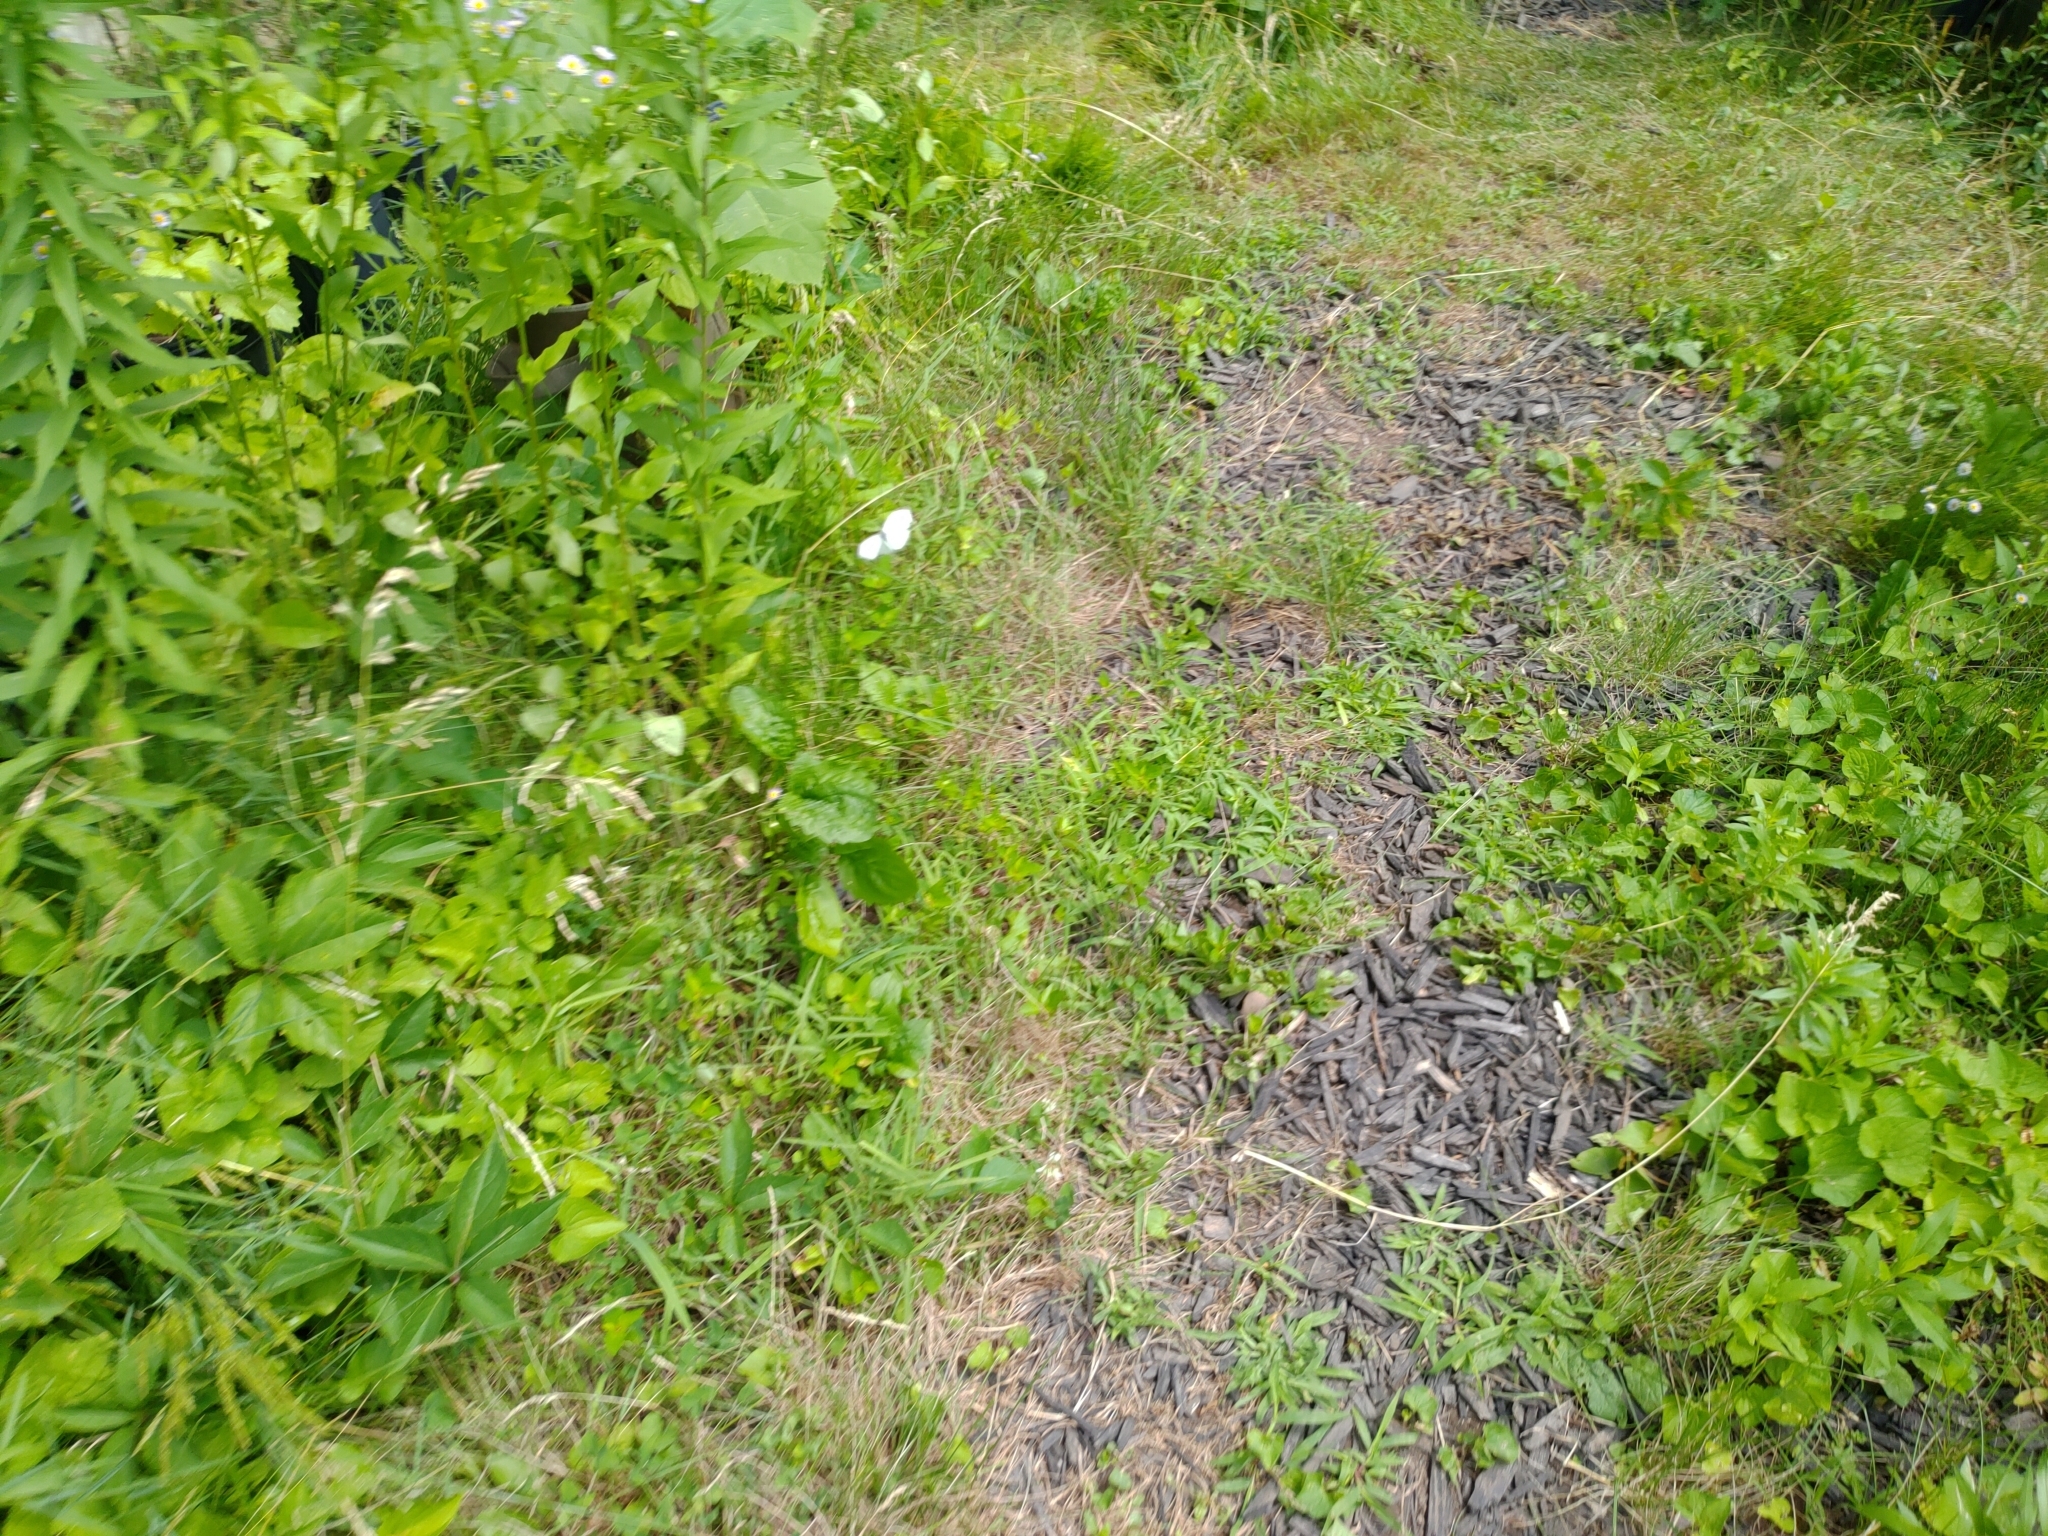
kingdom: Animalia
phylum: Arthropoda
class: Insecta
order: Lepidoptera
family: Pieridae
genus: Pieris
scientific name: Pieris rapae
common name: Small white
